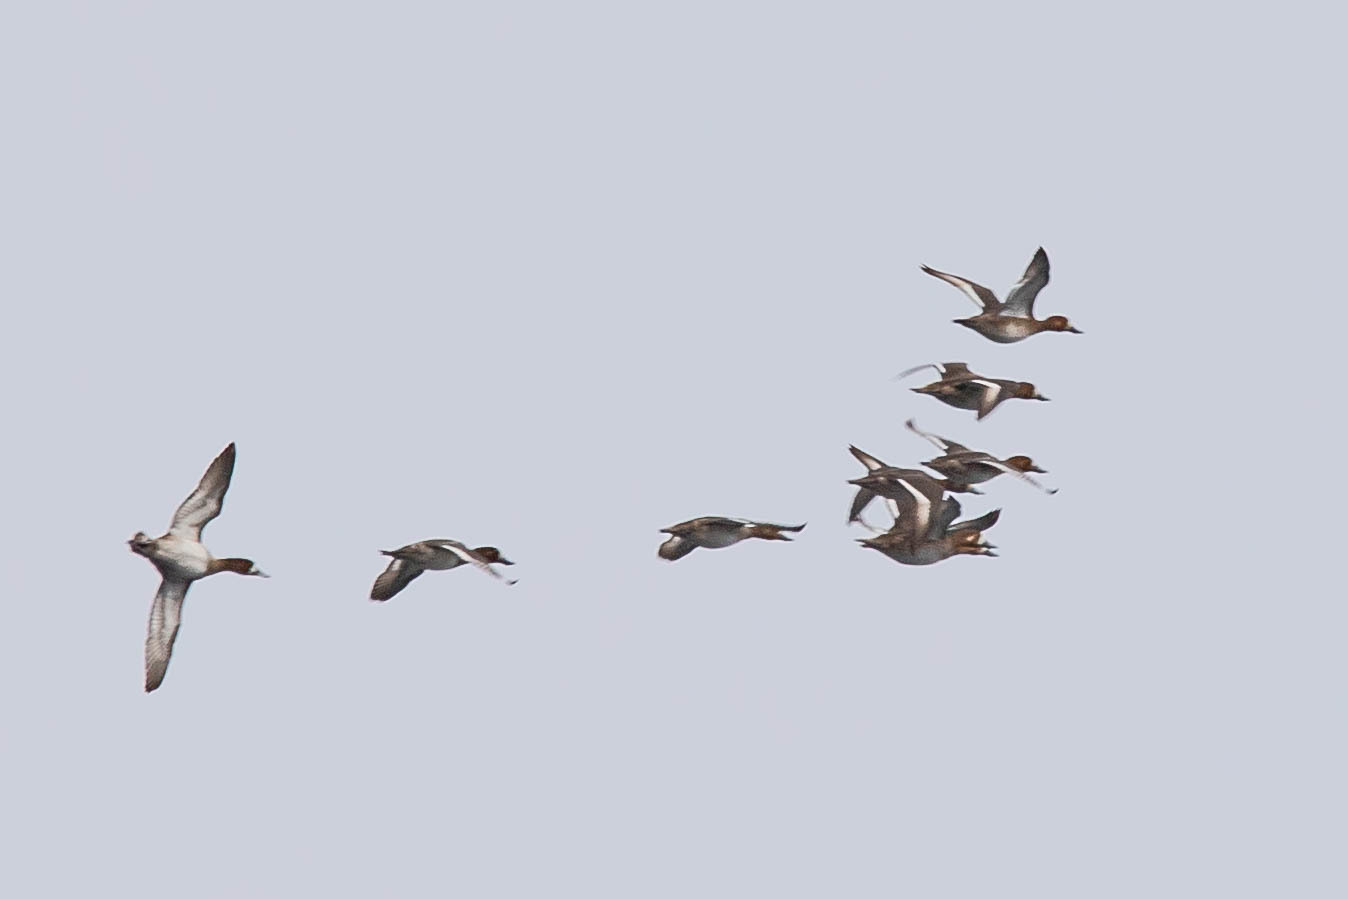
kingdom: Animalia
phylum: Chordata
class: Aves
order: Anseriformes
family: Anatidae
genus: Aythya
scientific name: Aythya marila
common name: Greater scaup
